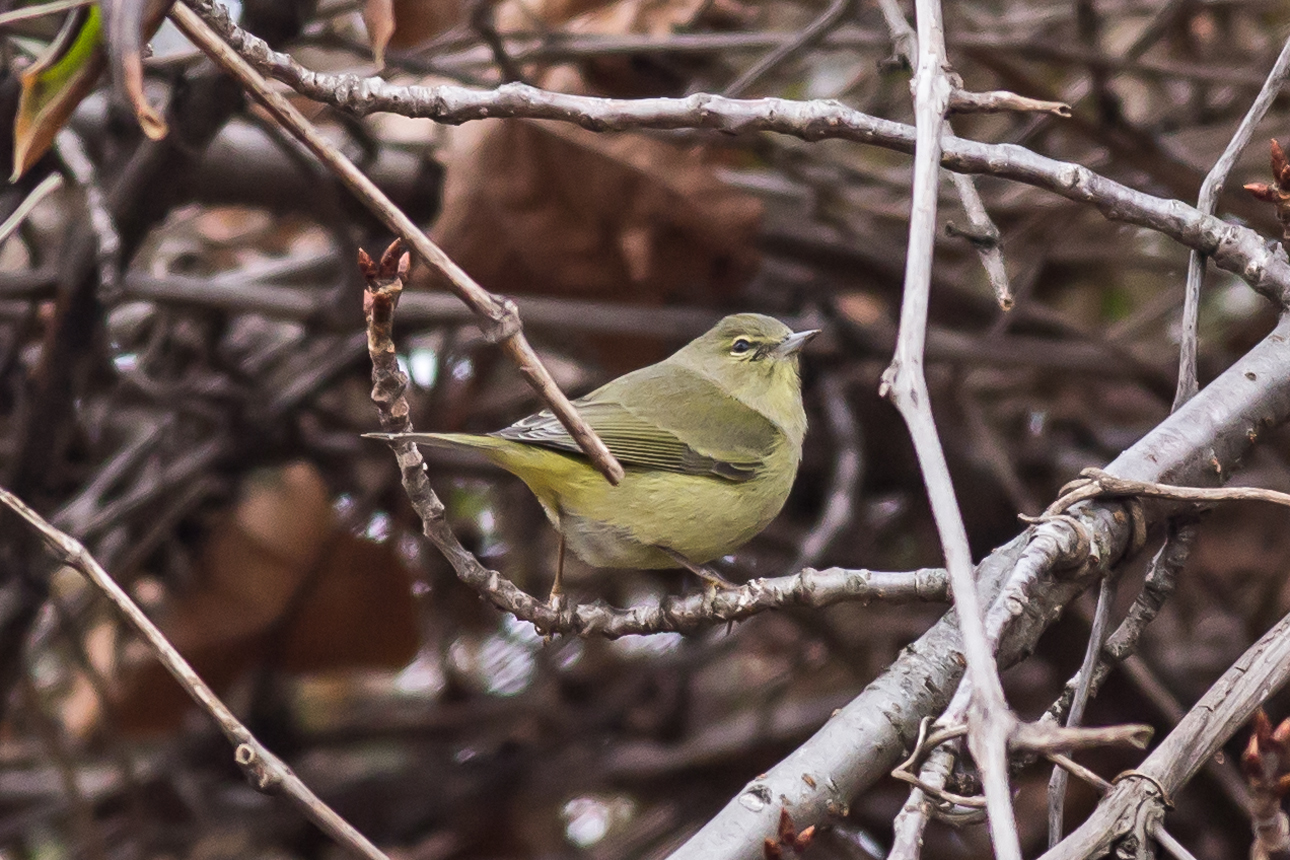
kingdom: Animalia
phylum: Chordata
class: Aves
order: Passeriformes
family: Parulidae
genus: Leiothlypis
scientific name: Leiothlypis celata
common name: Orange-crowned warbler
